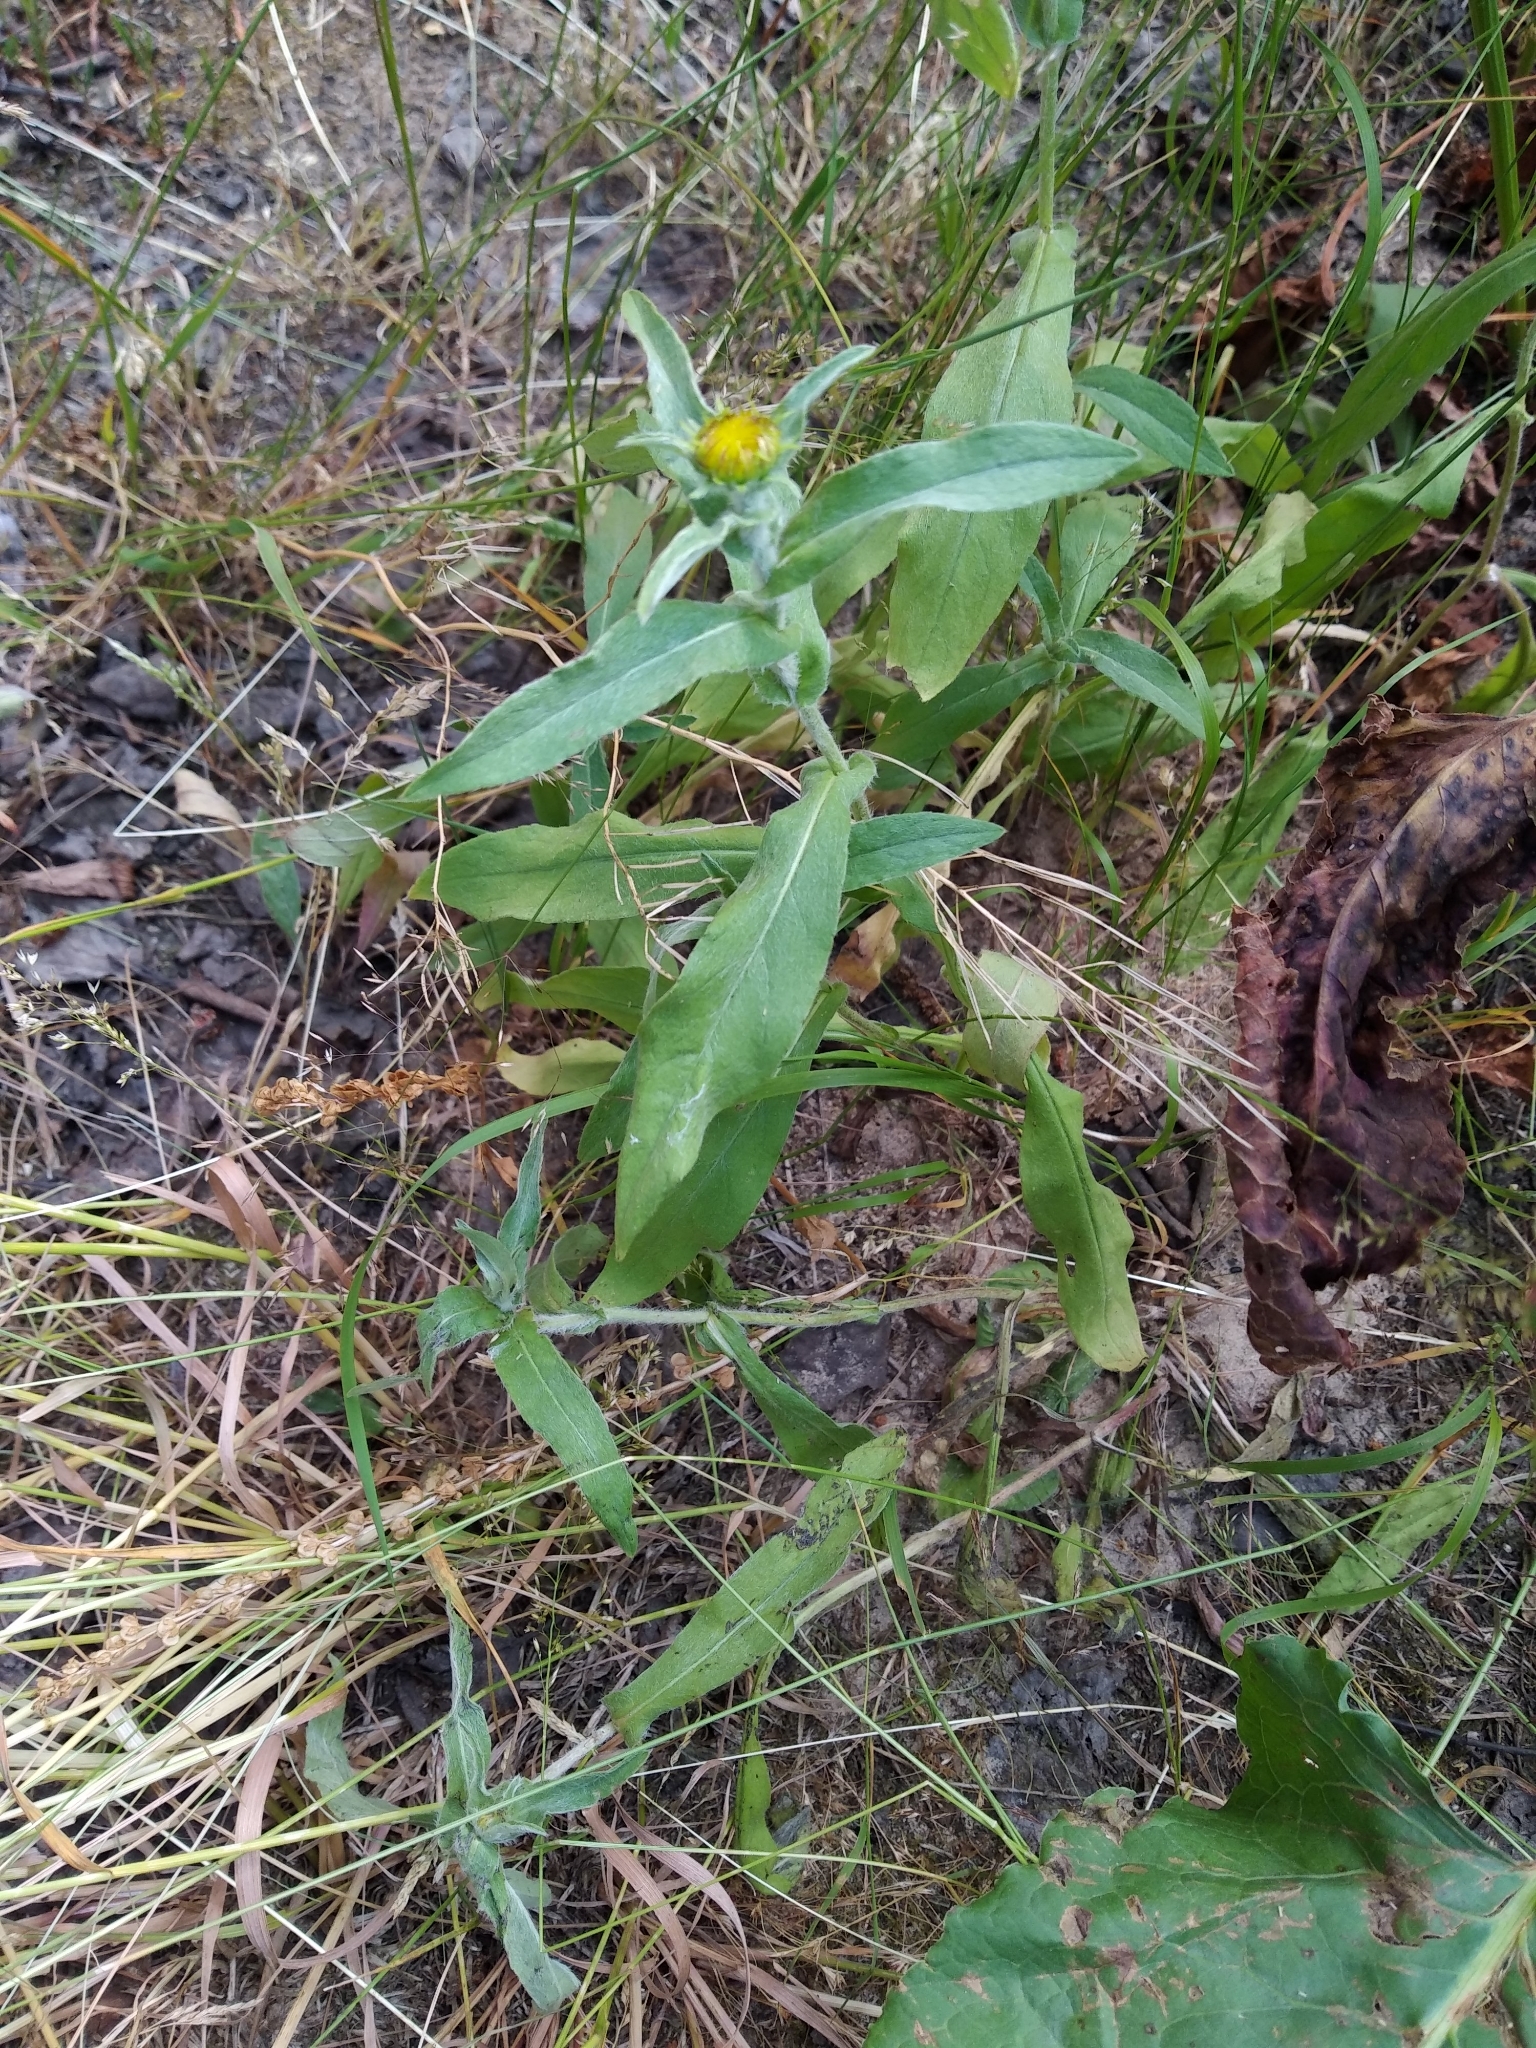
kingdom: Plantae
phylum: Tracheophyta
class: Magnoliopsida
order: Asterales
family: Asteraceae
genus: Pentanema
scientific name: Pentanema britannicum
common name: British elecampane
